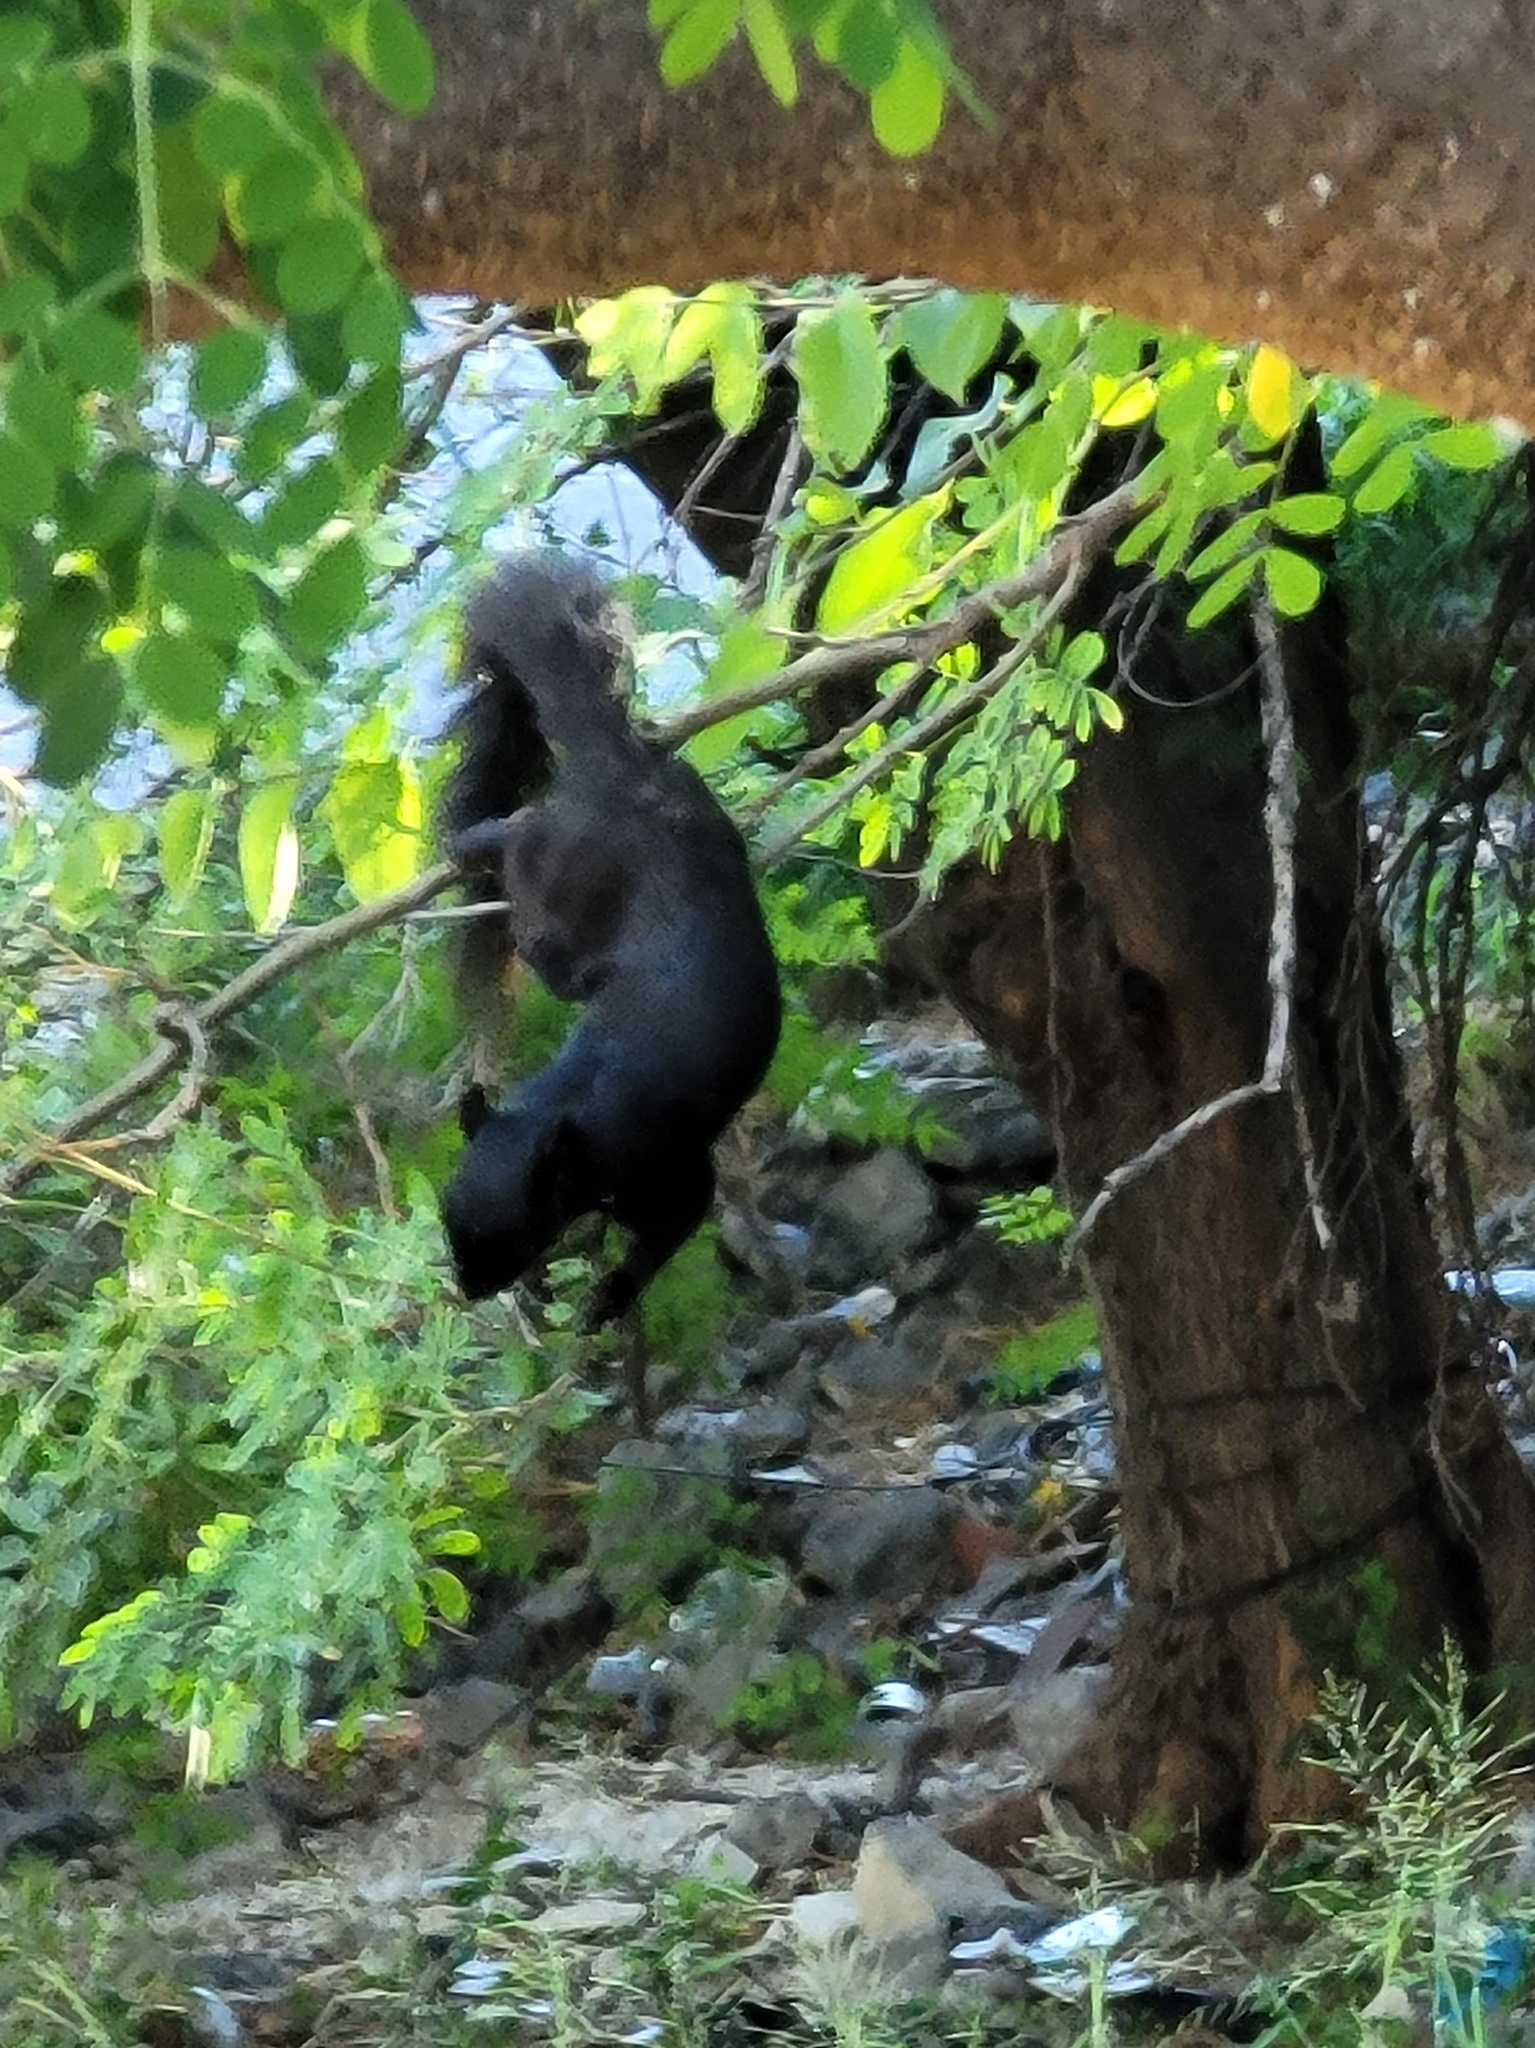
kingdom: Animalia
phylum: Chordata
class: Mammalia
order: Rodentia
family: Sciuridae
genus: Sciurus
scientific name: Sciurus aureogaster
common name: Red-bellied squirrel
